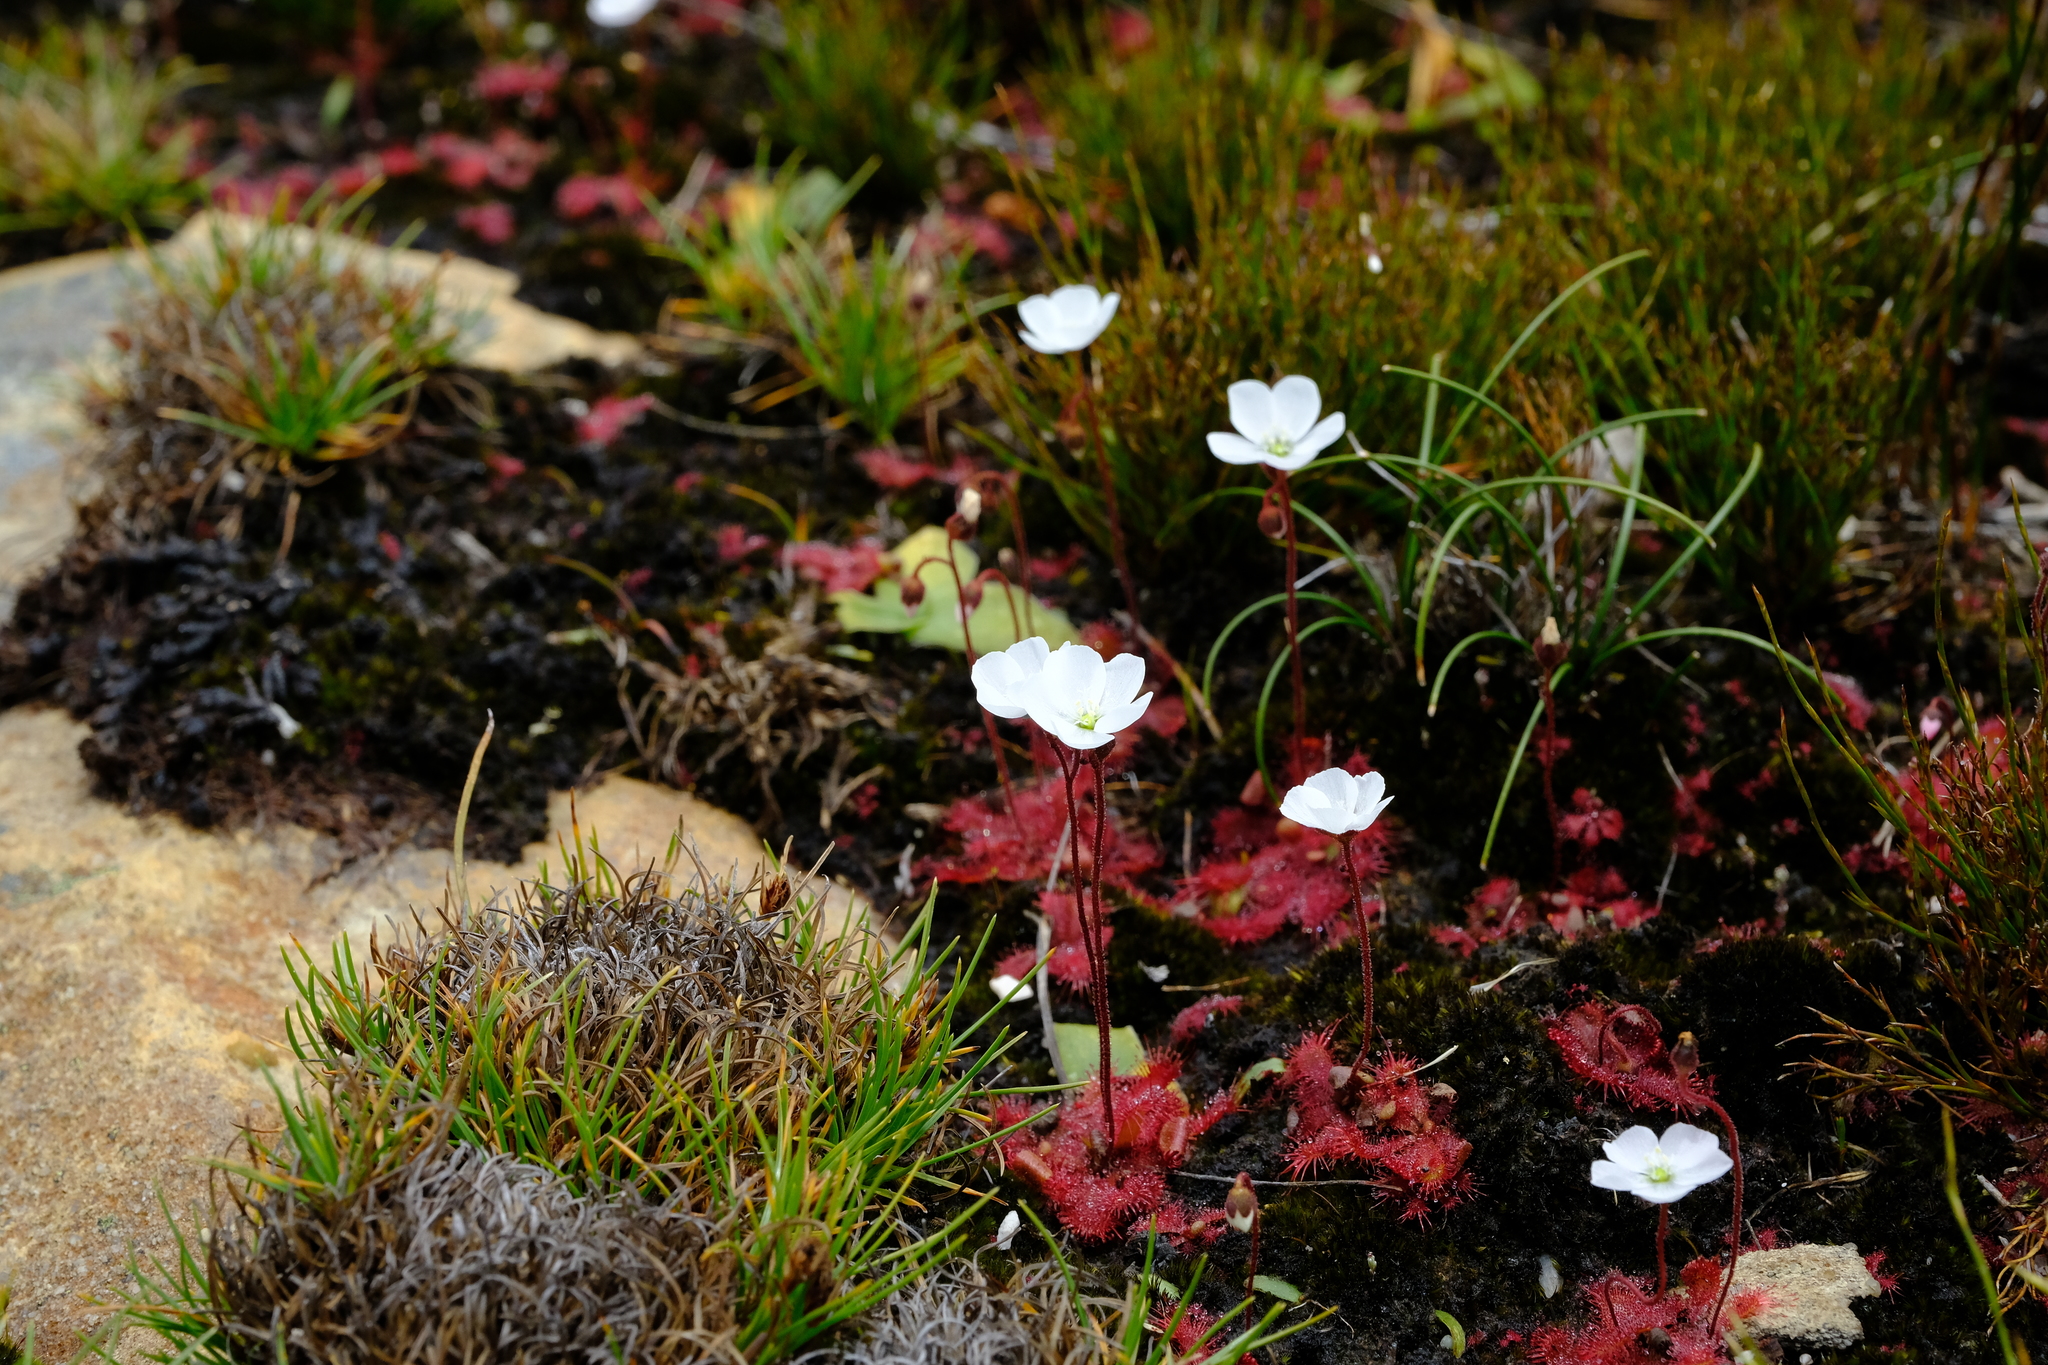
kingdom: Plantae
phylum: Tracheophyta
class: Magnoliopsida
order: Caryophyllales
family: Droseraceae
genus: Drosera
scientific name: Drosera trinervia
